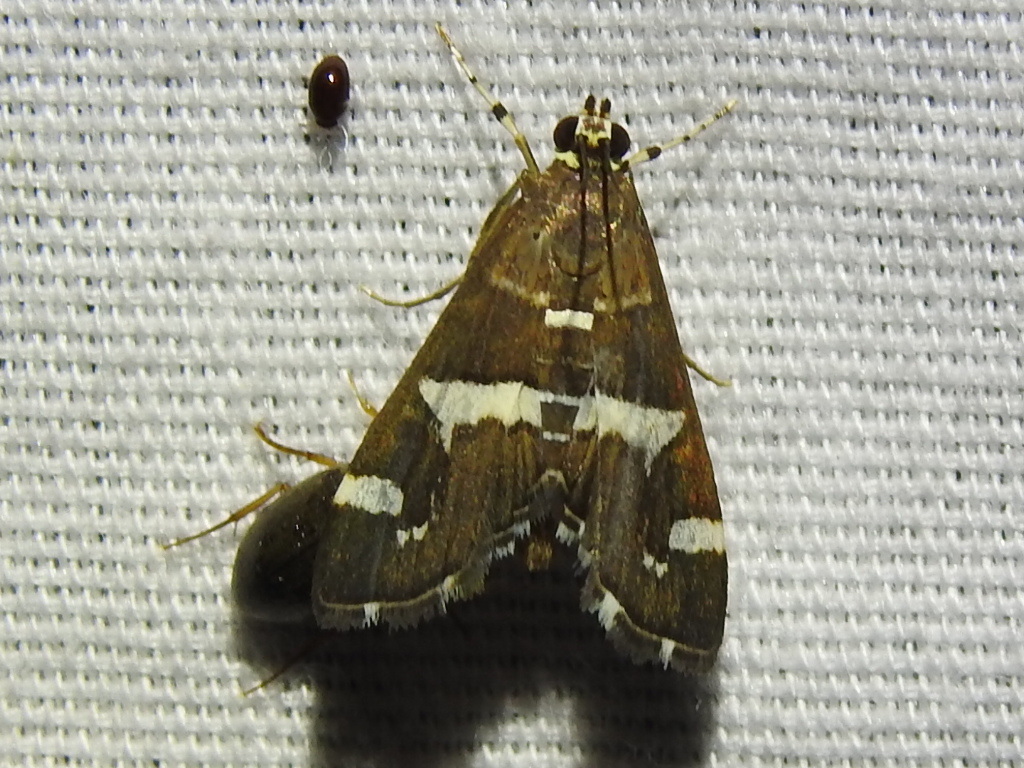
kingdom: Animalia
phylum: Arthropoda
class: Insecta
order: Lepidoptera
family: Crambidae
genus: Spoladea
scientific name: Spoladea recurvalis
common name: Beet webworm moth
